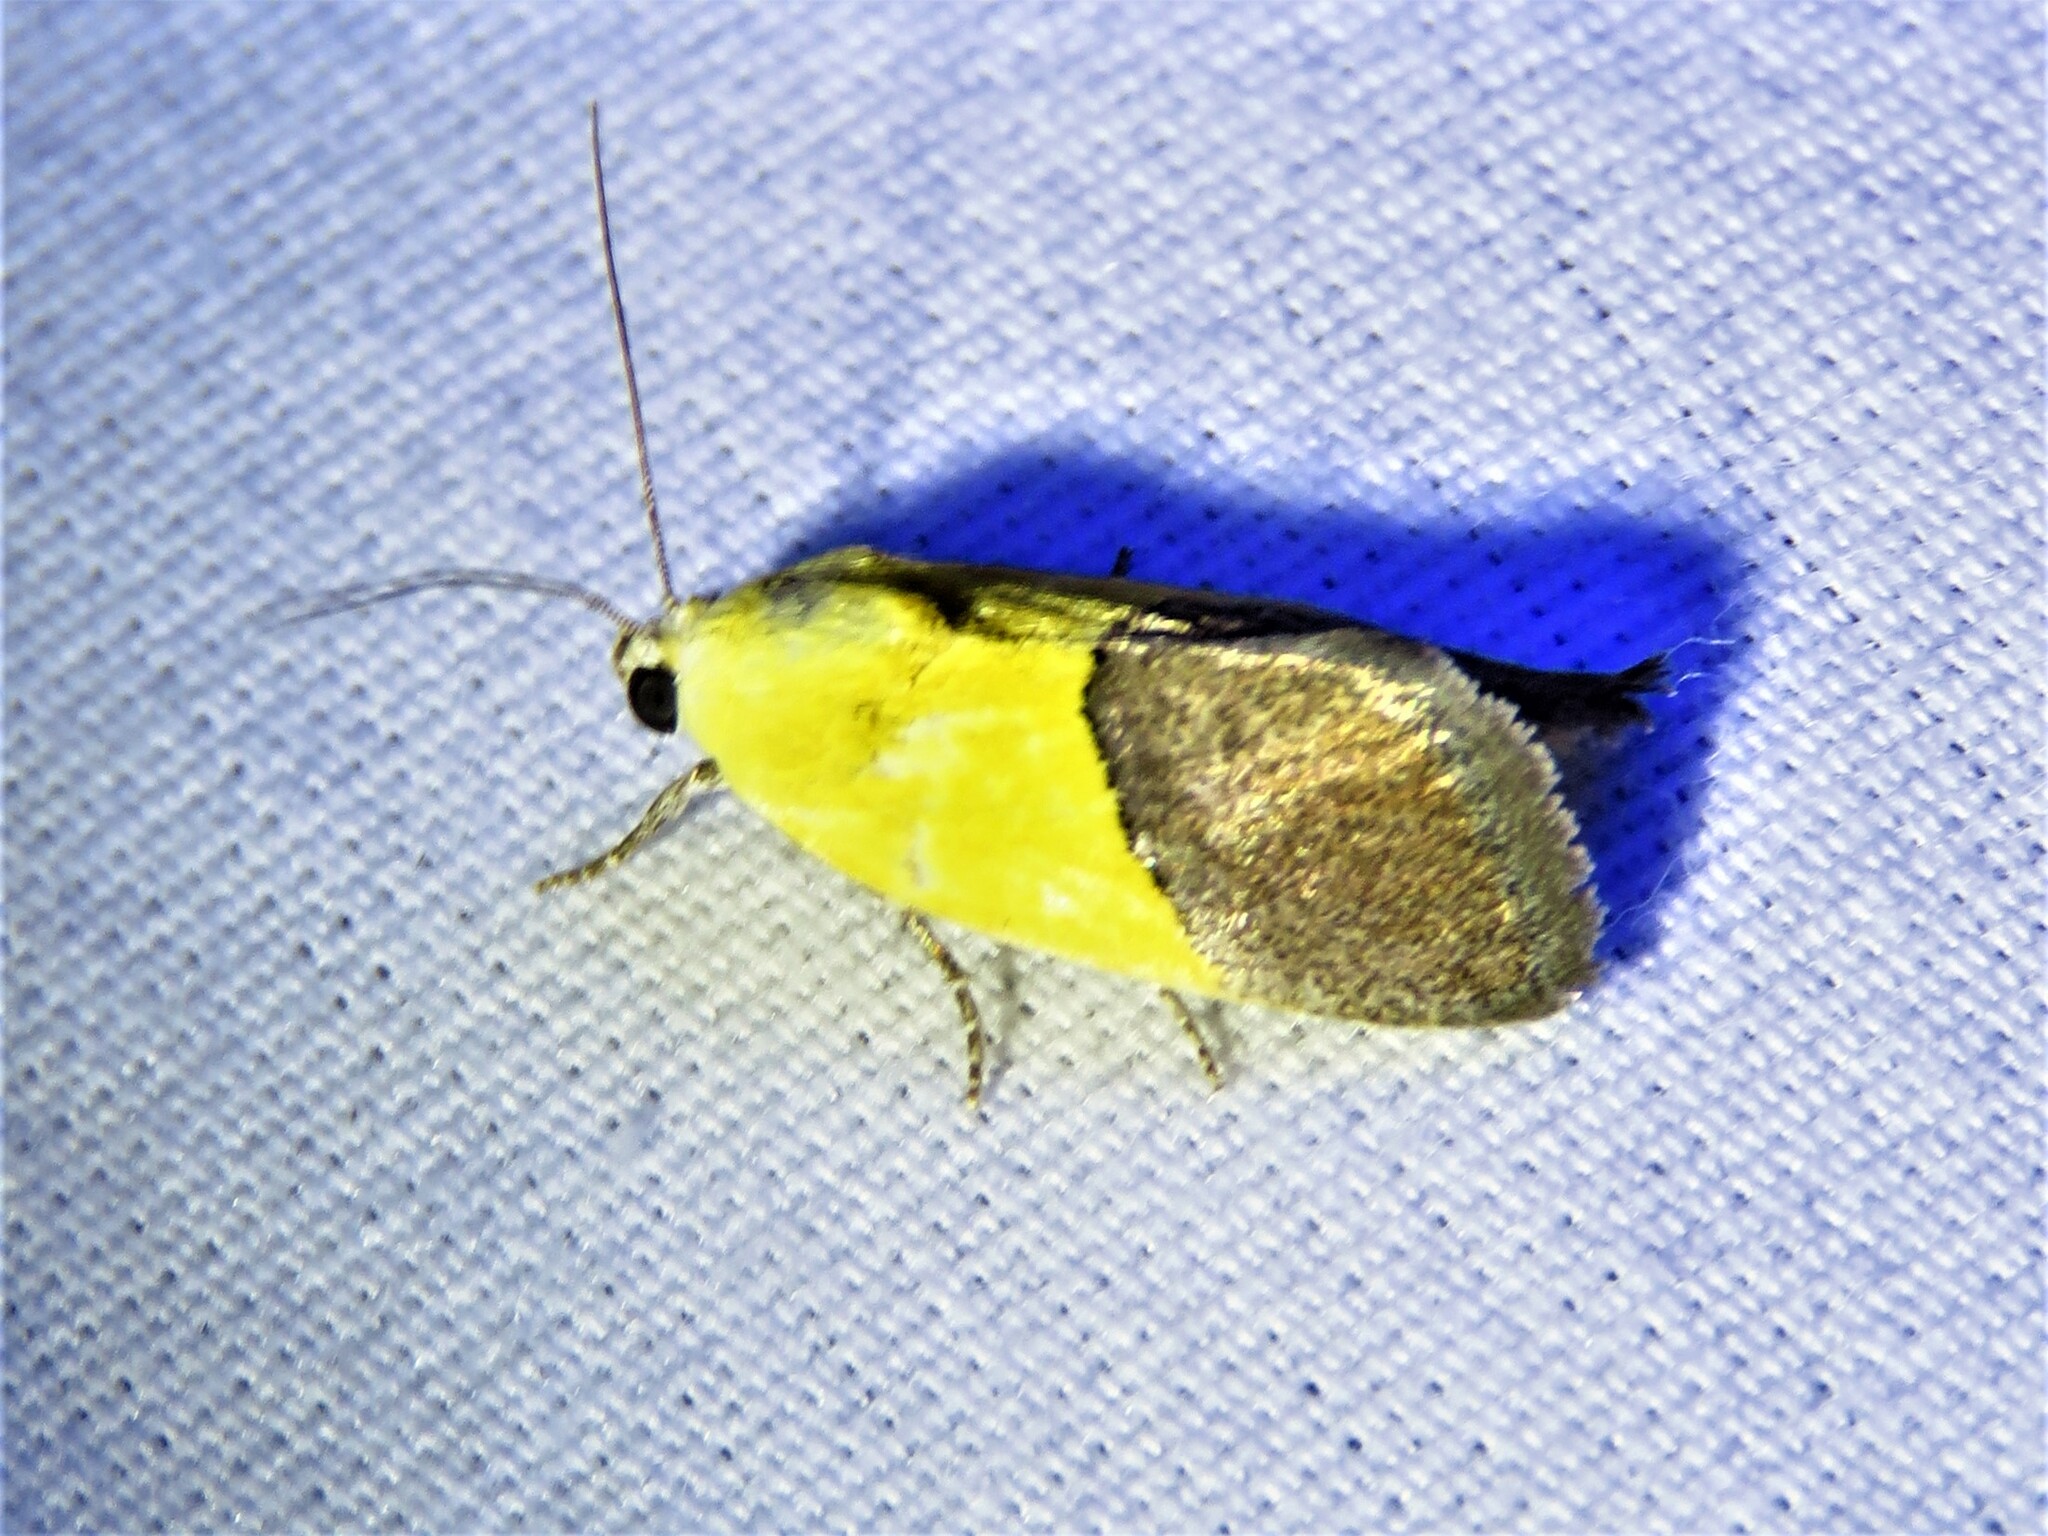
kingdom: Animalia
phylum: Arthropoda
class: Insecta
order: Lepidoptera
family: Noctuidae
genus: Acontia
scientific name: Acontia semiflava
